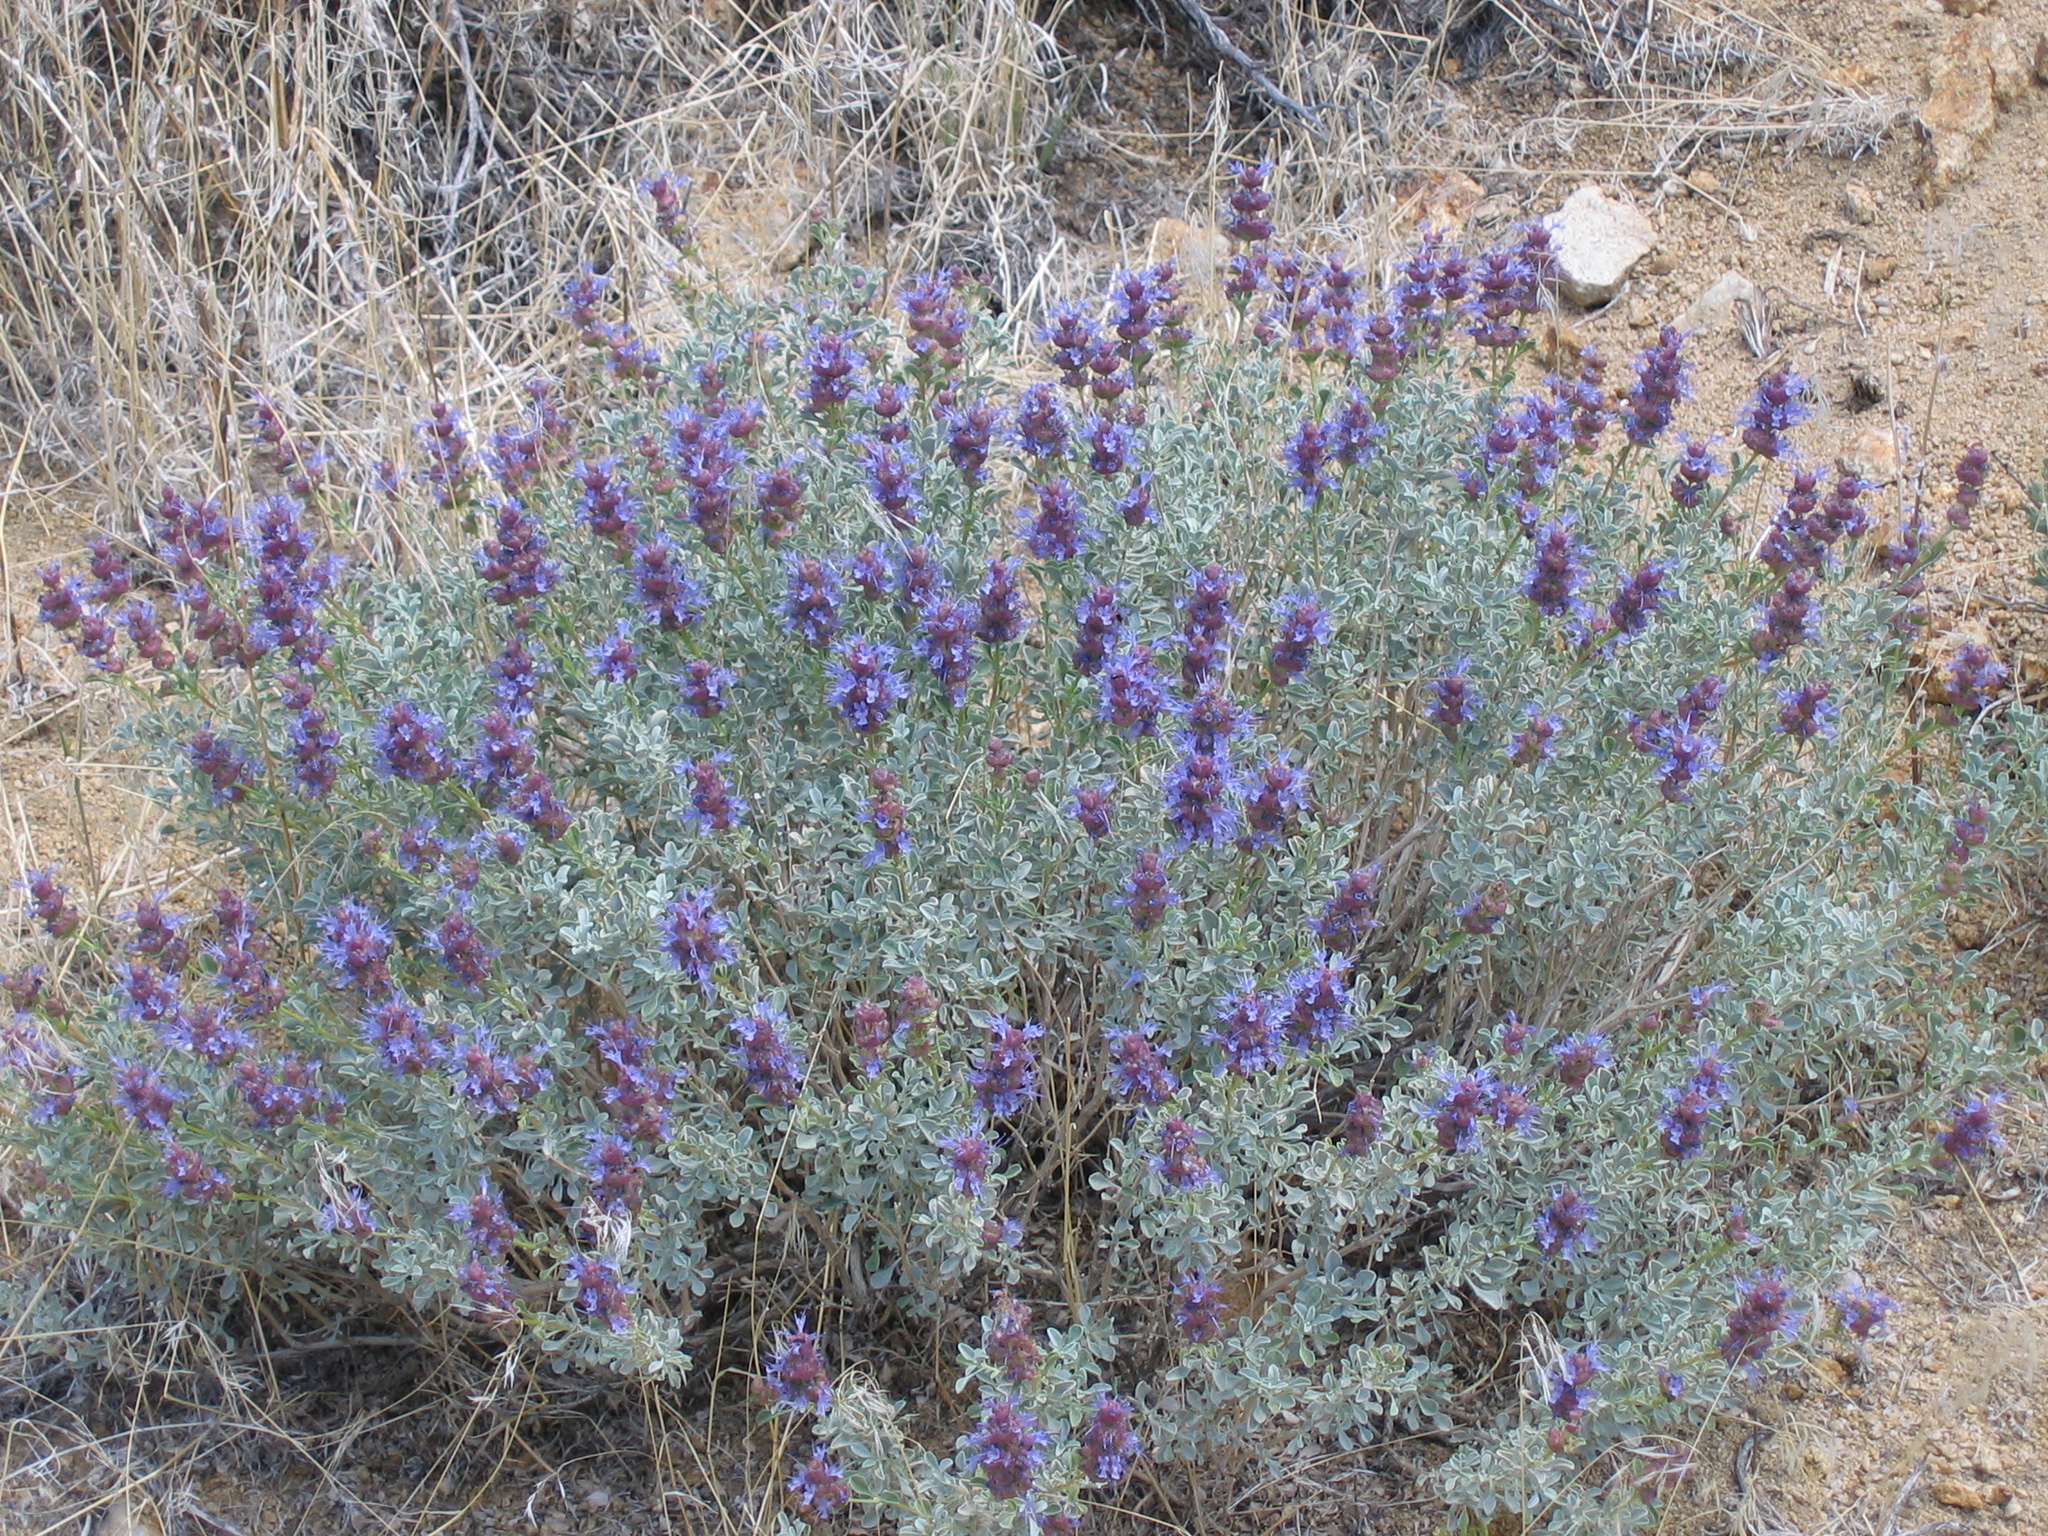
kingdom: Plantae
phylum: Tracheophyta
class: Magnoliopsida
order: Lamiales
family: Lamiaceae
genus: Salvia
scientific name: Salvia dorrii
